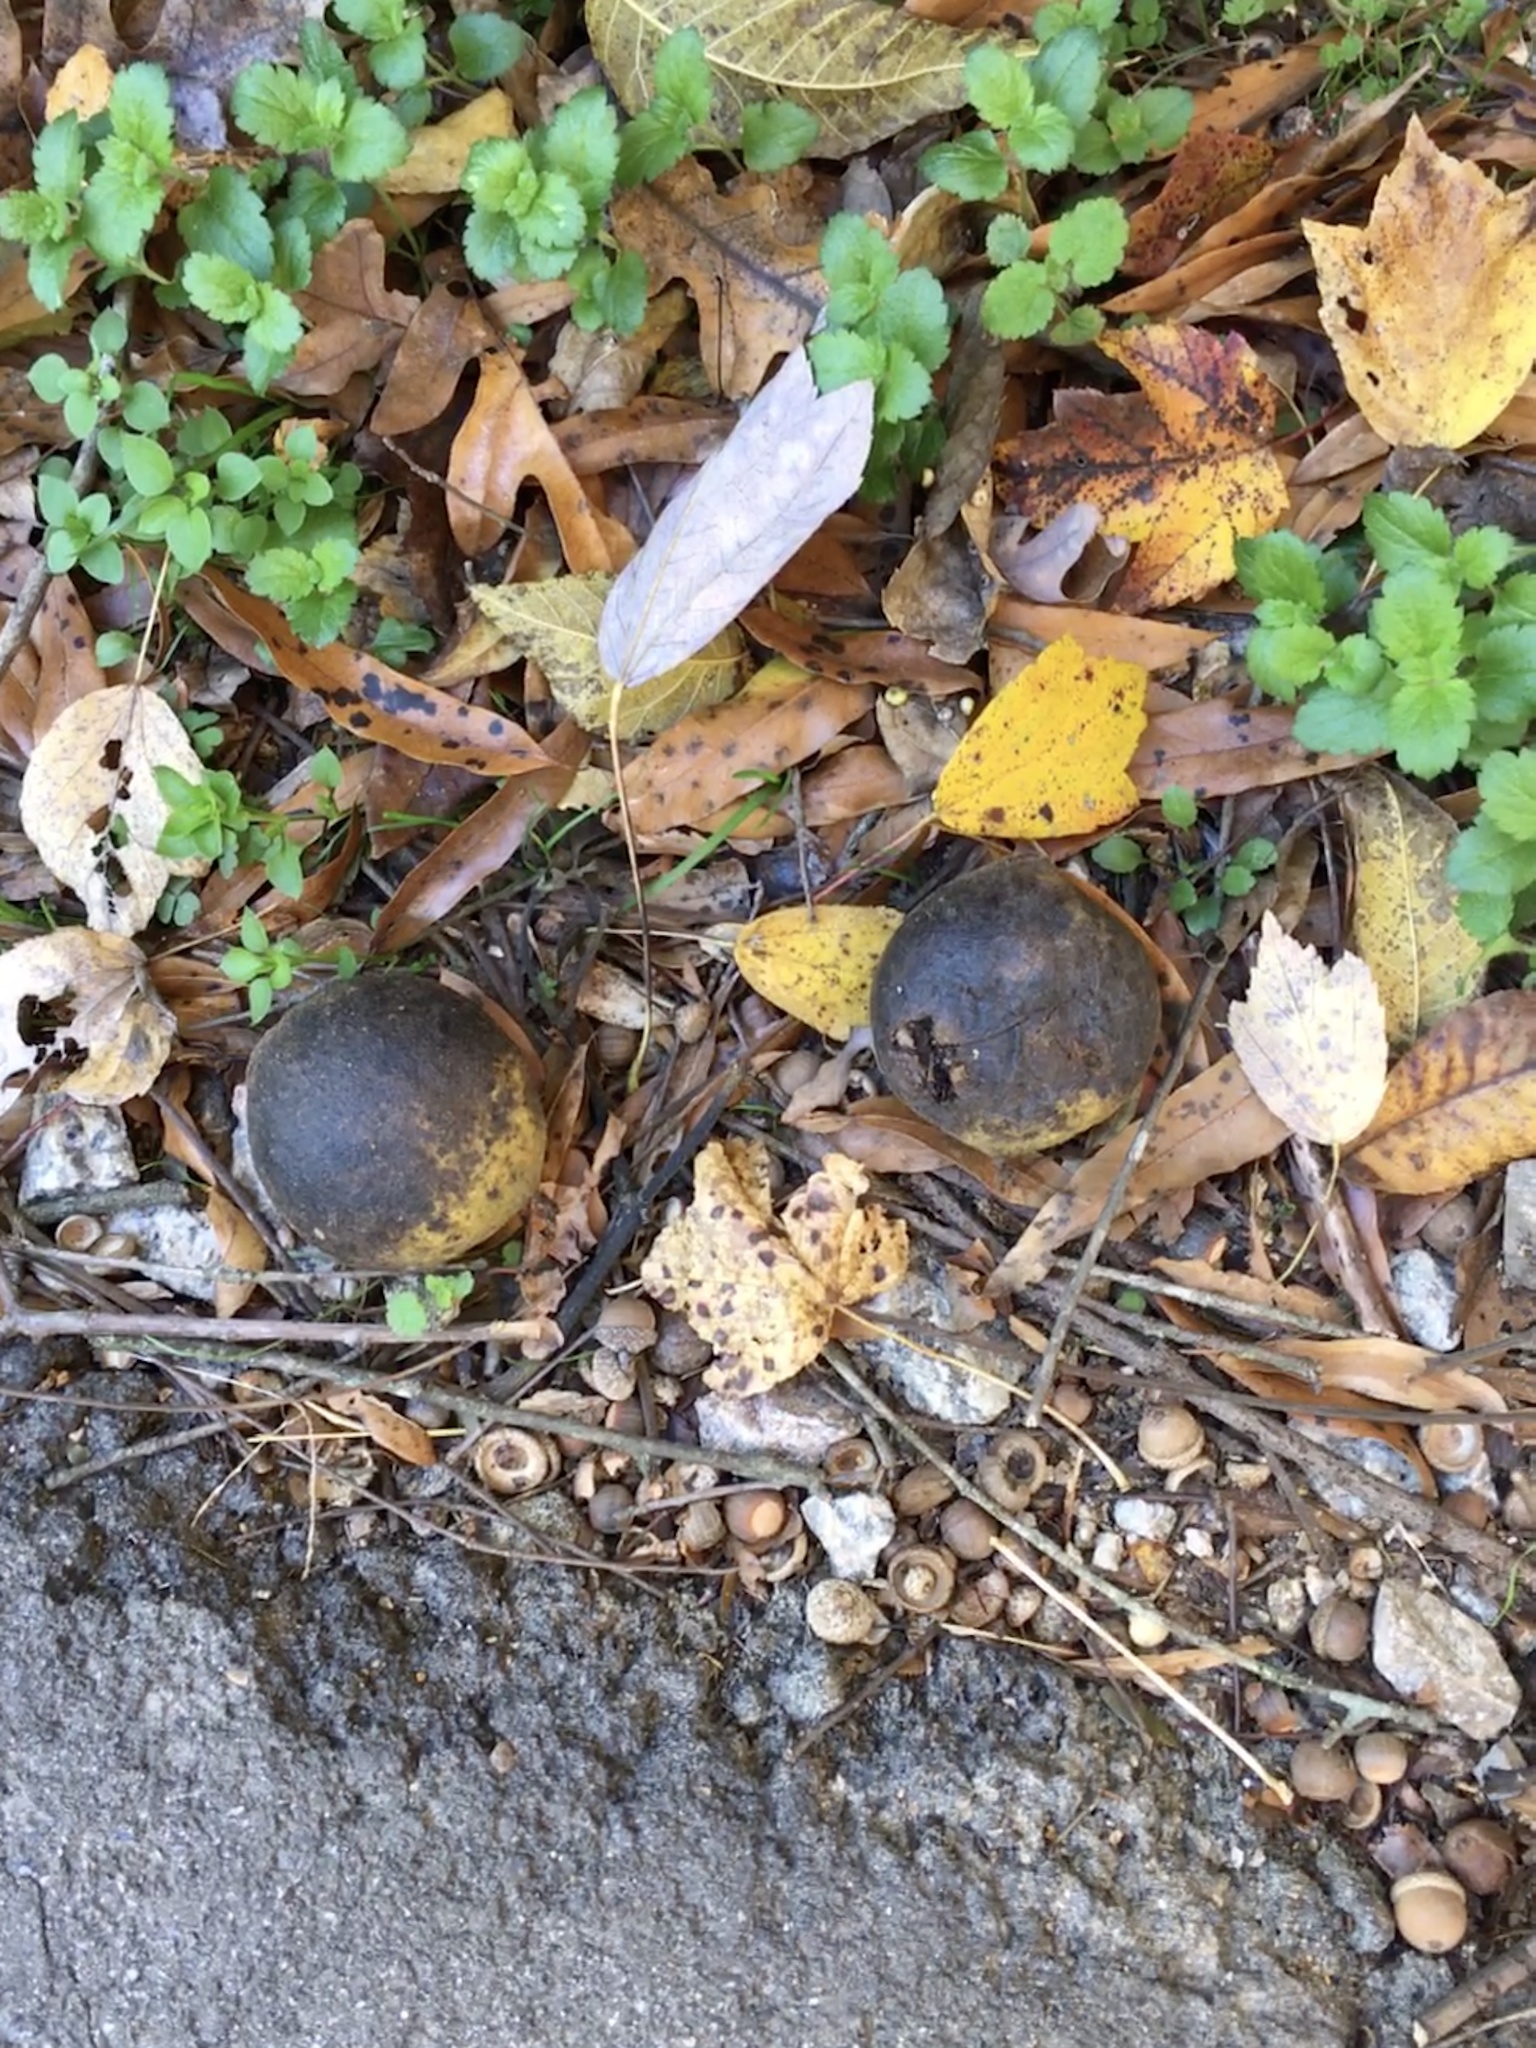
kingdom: Plantae
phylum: Tracheophyta
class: Magnoliopsida
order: Fagales
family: Juglandaceae
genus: Juglans
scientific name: Juglans nigra
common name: Black walnut
